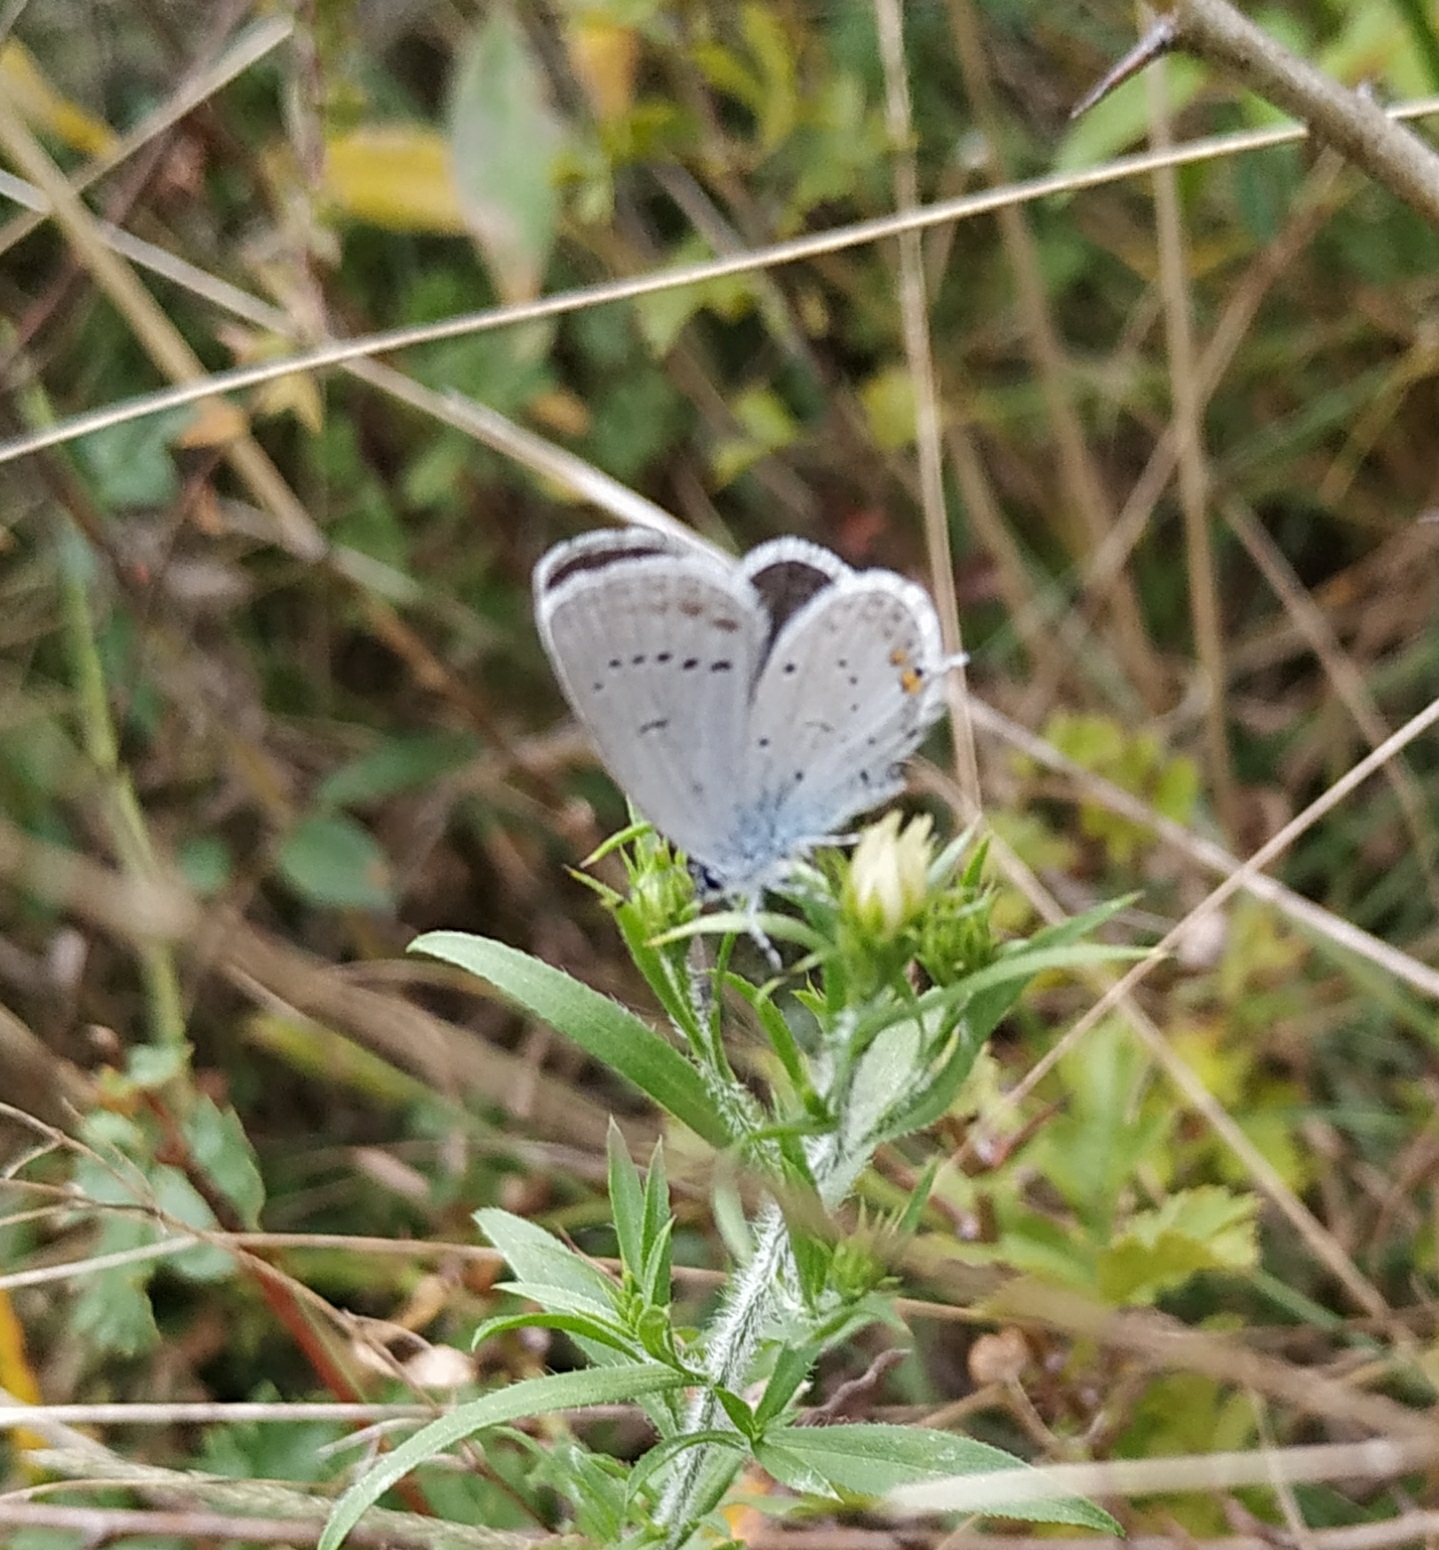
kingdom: Animalia
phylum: Arthropoda
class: Insecta
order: Lepidoptera
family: Lycaenidae
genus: Elkalyce
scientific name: Elkalyce argiades
